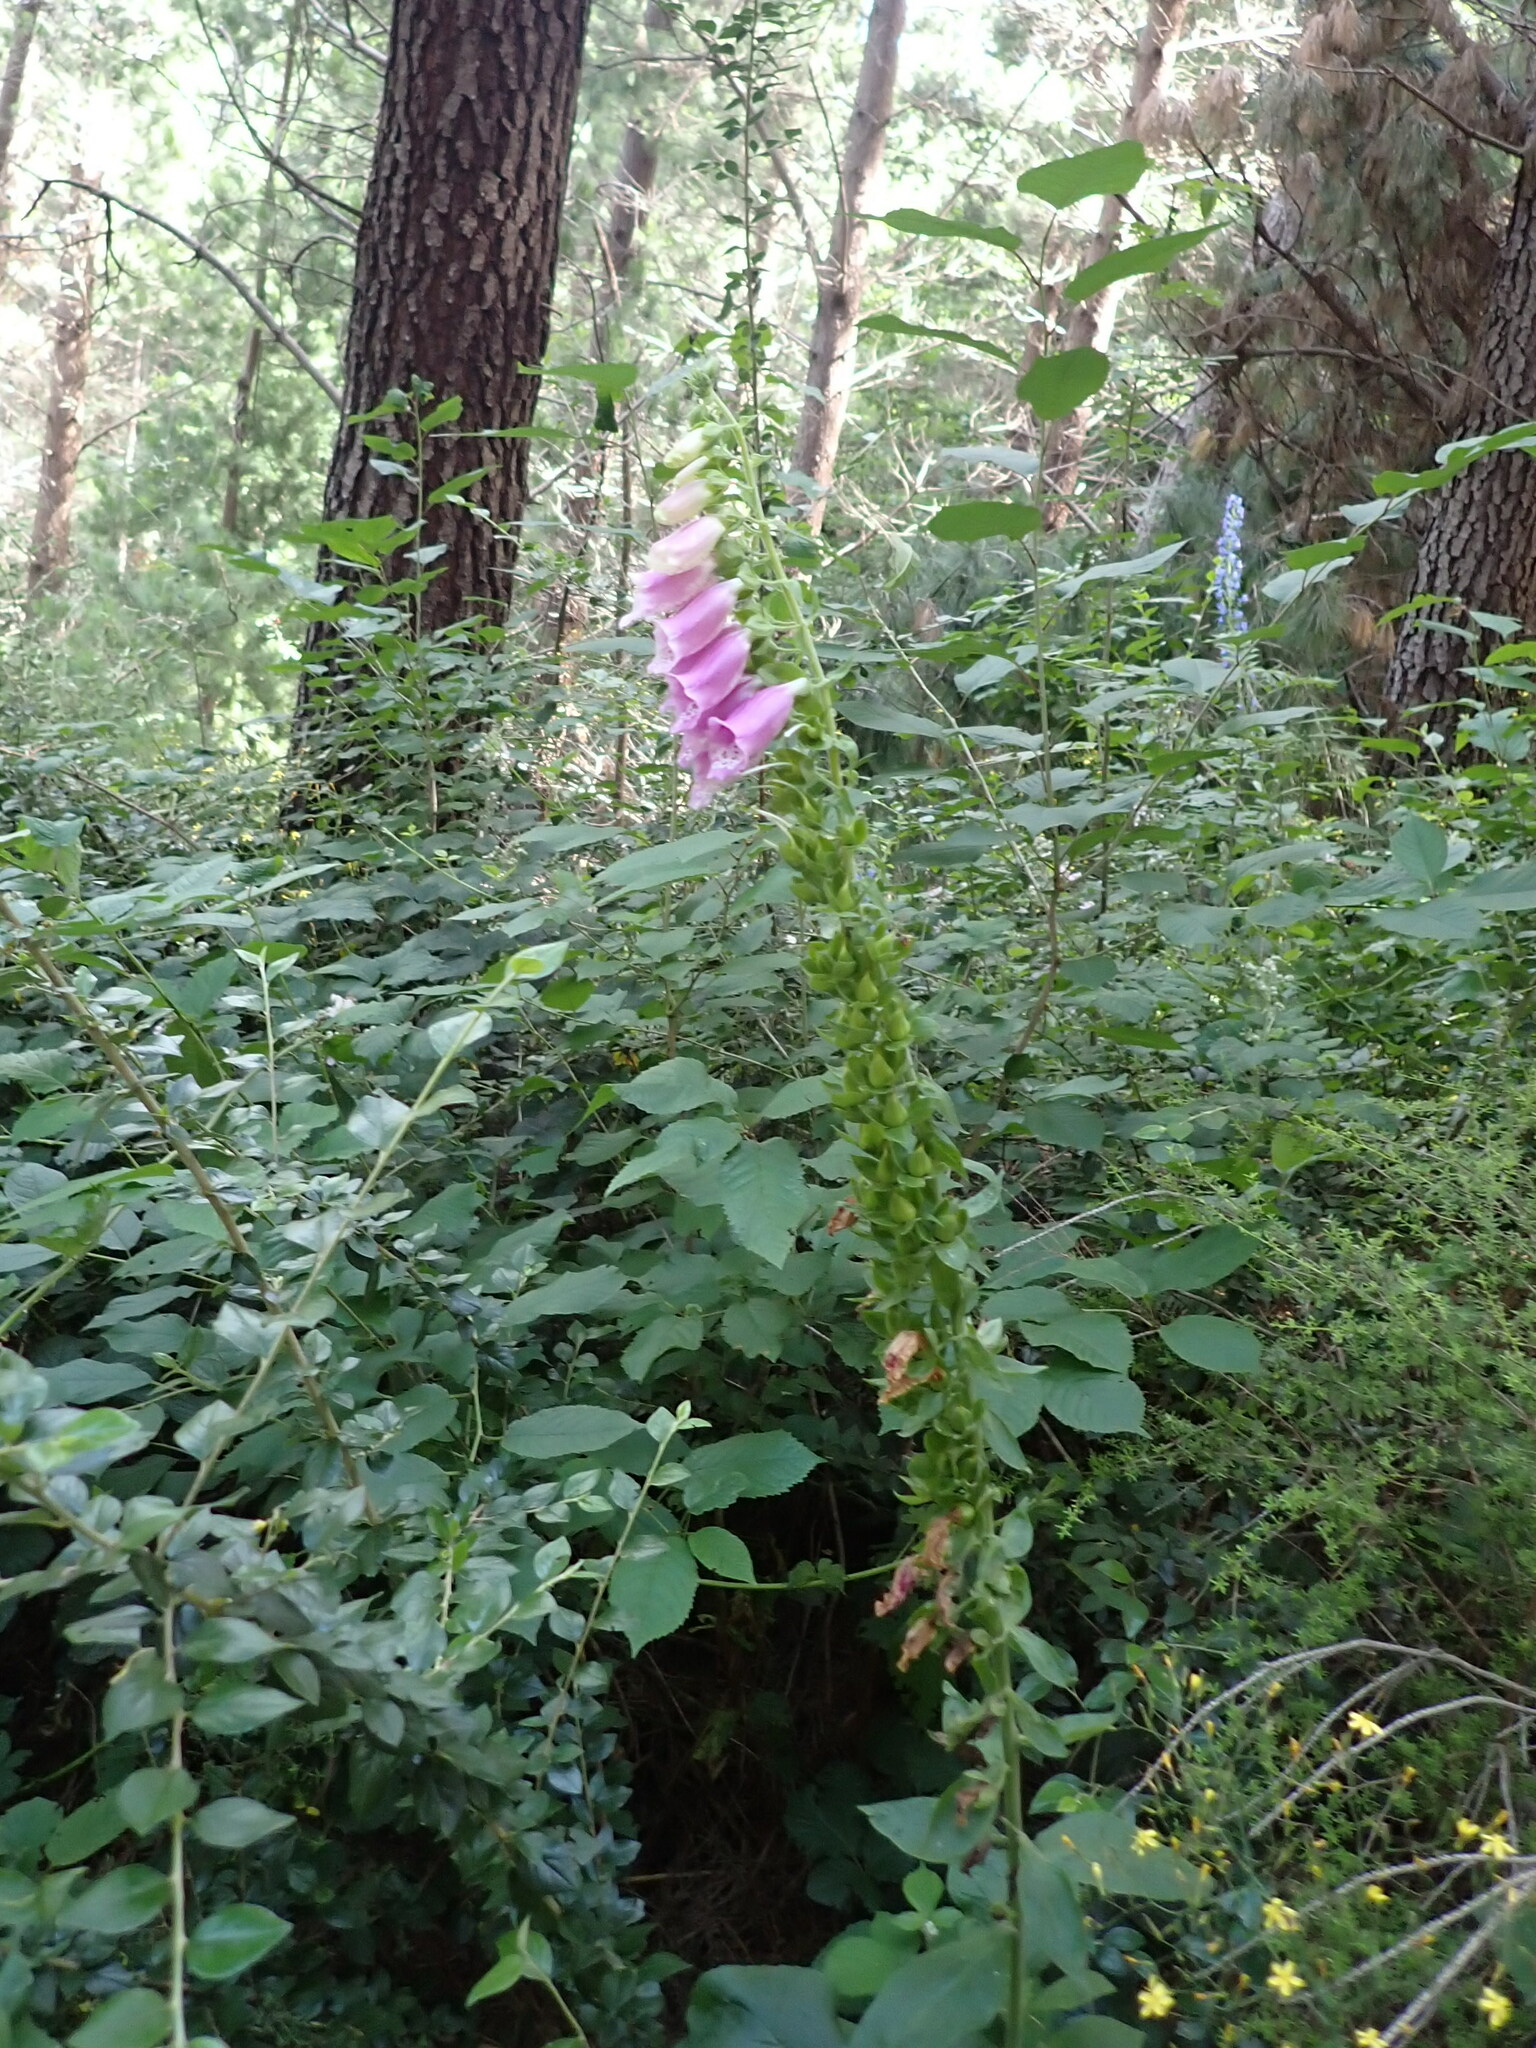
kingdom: Plantae
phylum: Tracheophyta
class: Magnoliopsida
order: Lamiales
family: Plantaginaceae
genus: Digitalis
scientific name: Digitalis purpurea
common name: Foxglove
